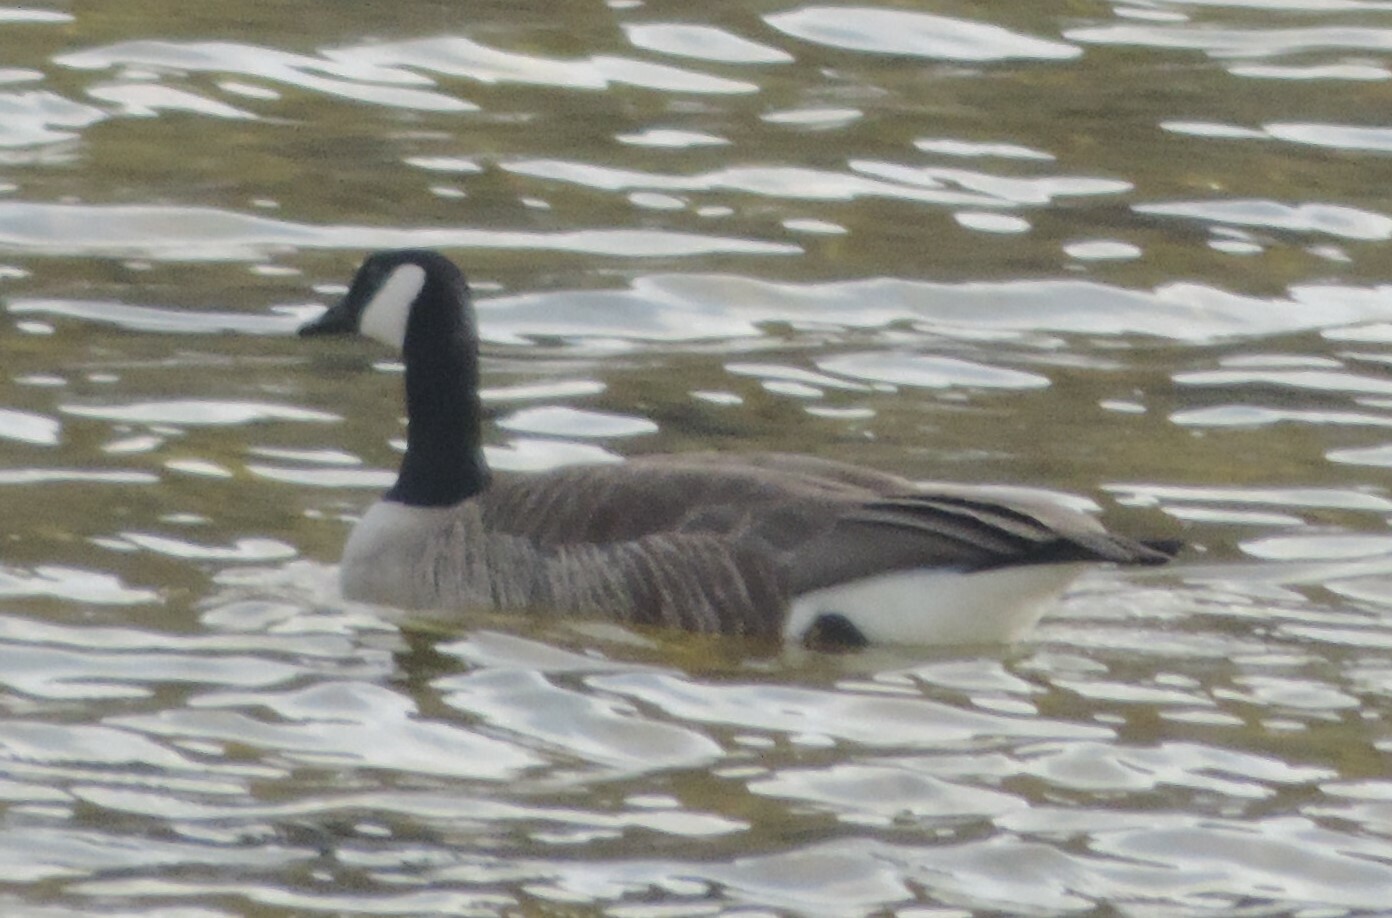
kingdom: Animalia
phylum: Chordata
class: Aves
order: Anseriformes
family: Anatidae
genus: Branta
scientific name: Branta canadensis
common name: Canada goose
